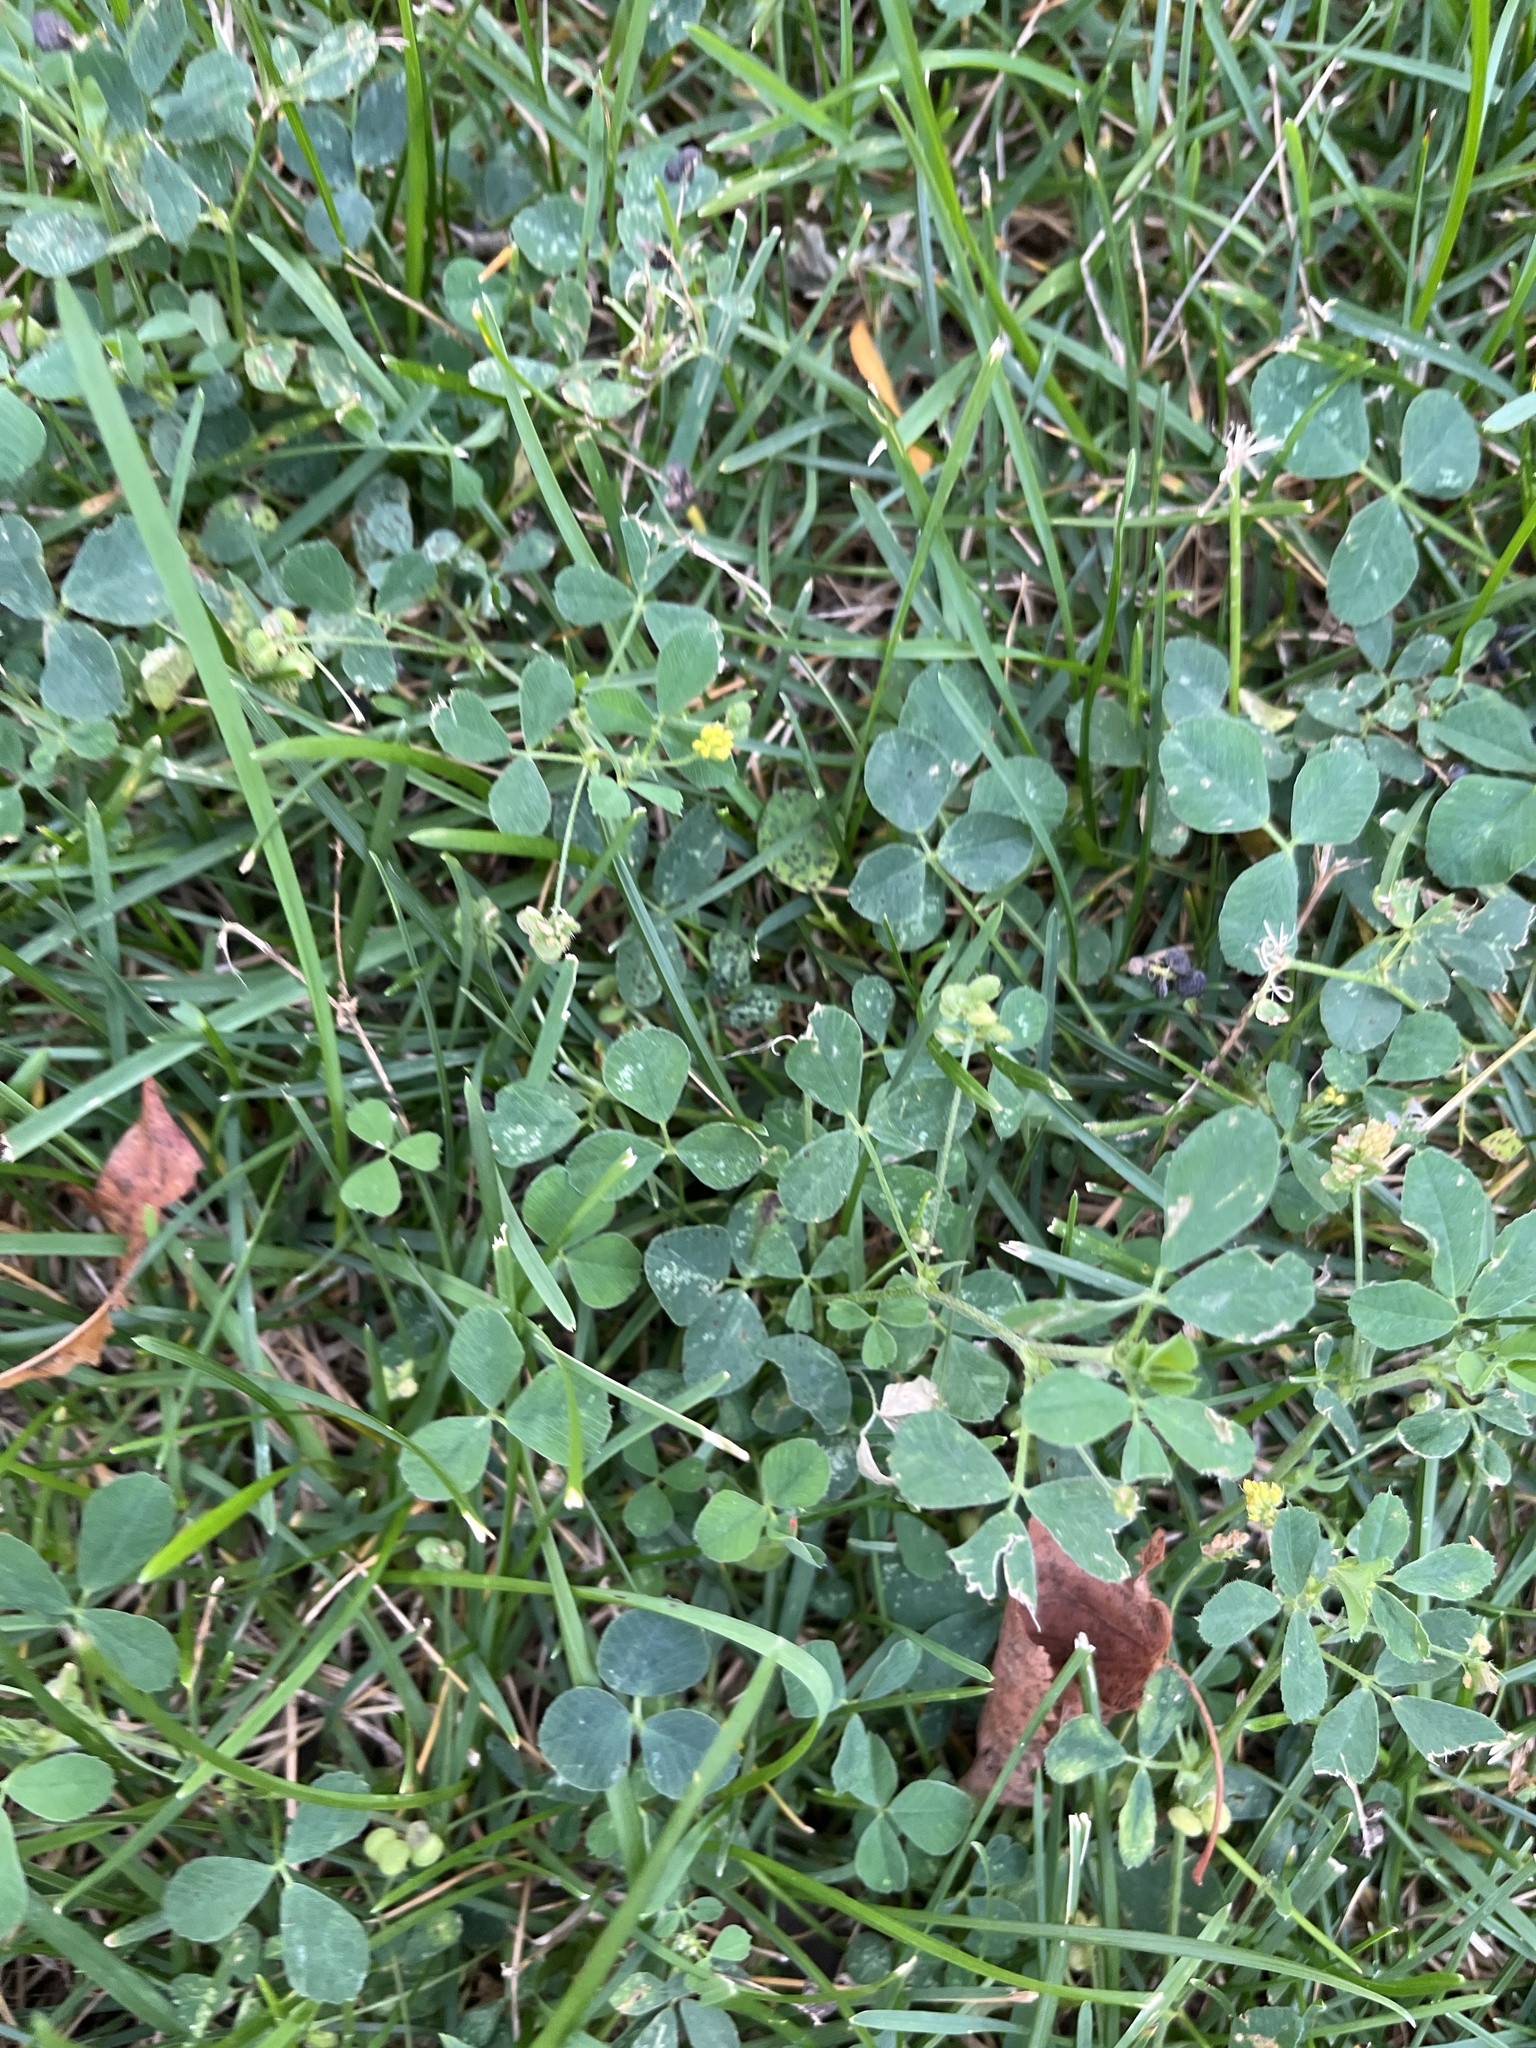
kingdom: Plantae
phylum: Tracheophyta
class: Magnoliopsida
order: Fabales
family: Fabaceae
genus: Medicago
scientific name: Medicago lupulina
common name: Black medick
